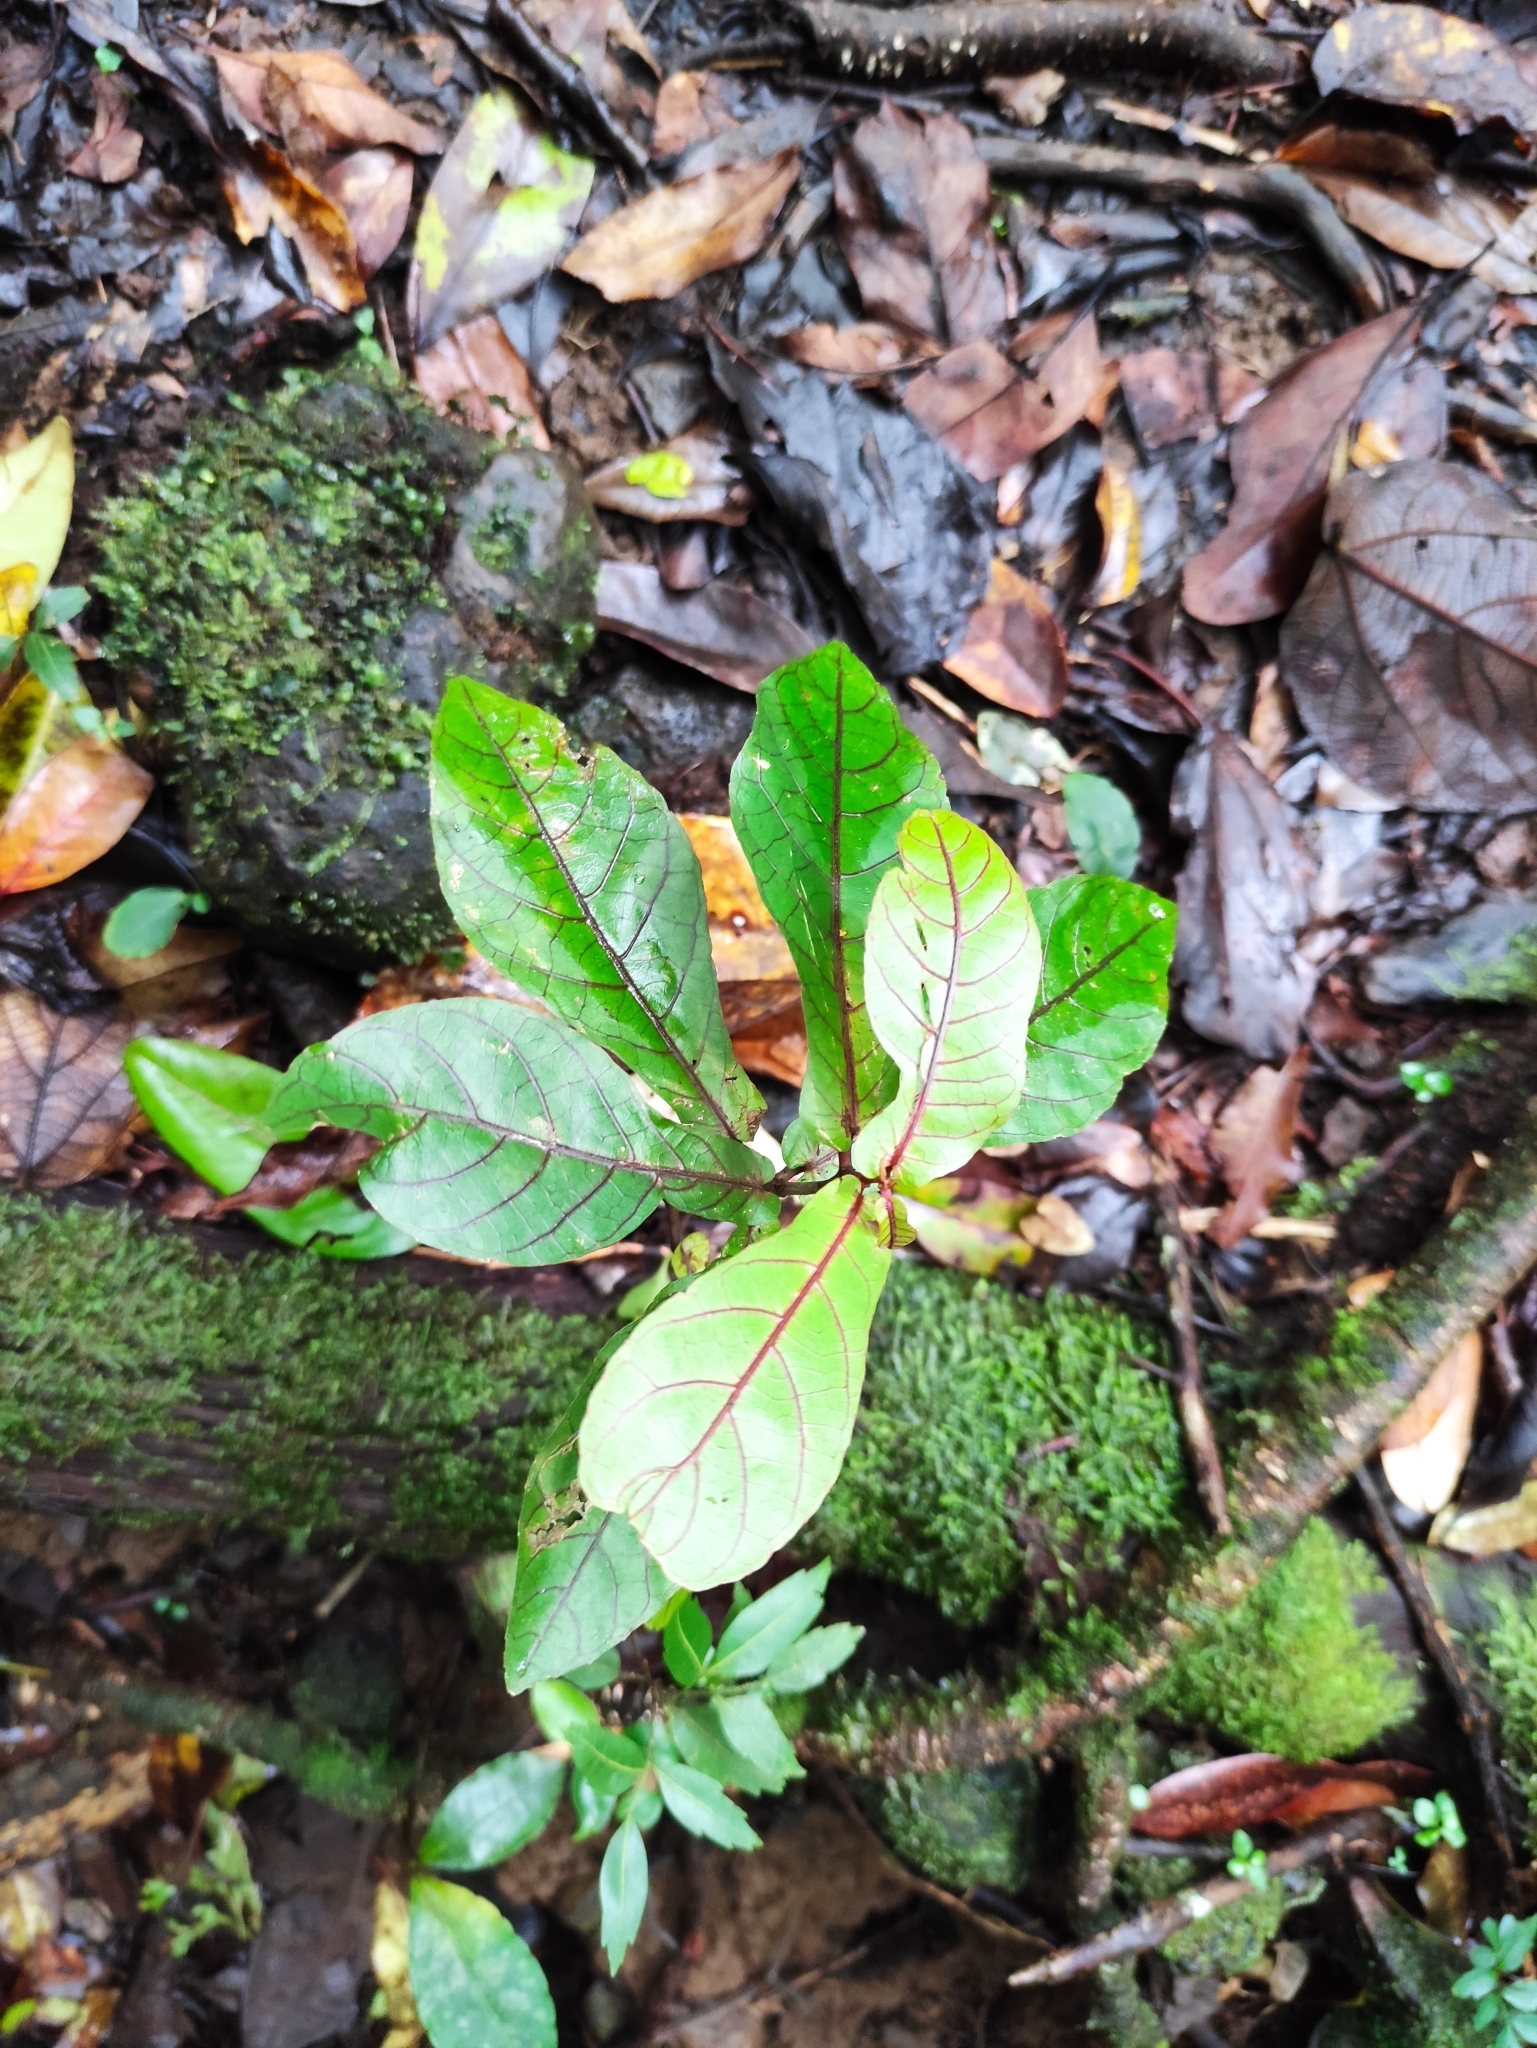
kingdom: Plantae
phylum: Tracheophyta
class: Magnoliopsida
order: Malpighiales
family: Euphorbiaceae
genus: Acalypha
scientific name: Acalypha integrifolia
